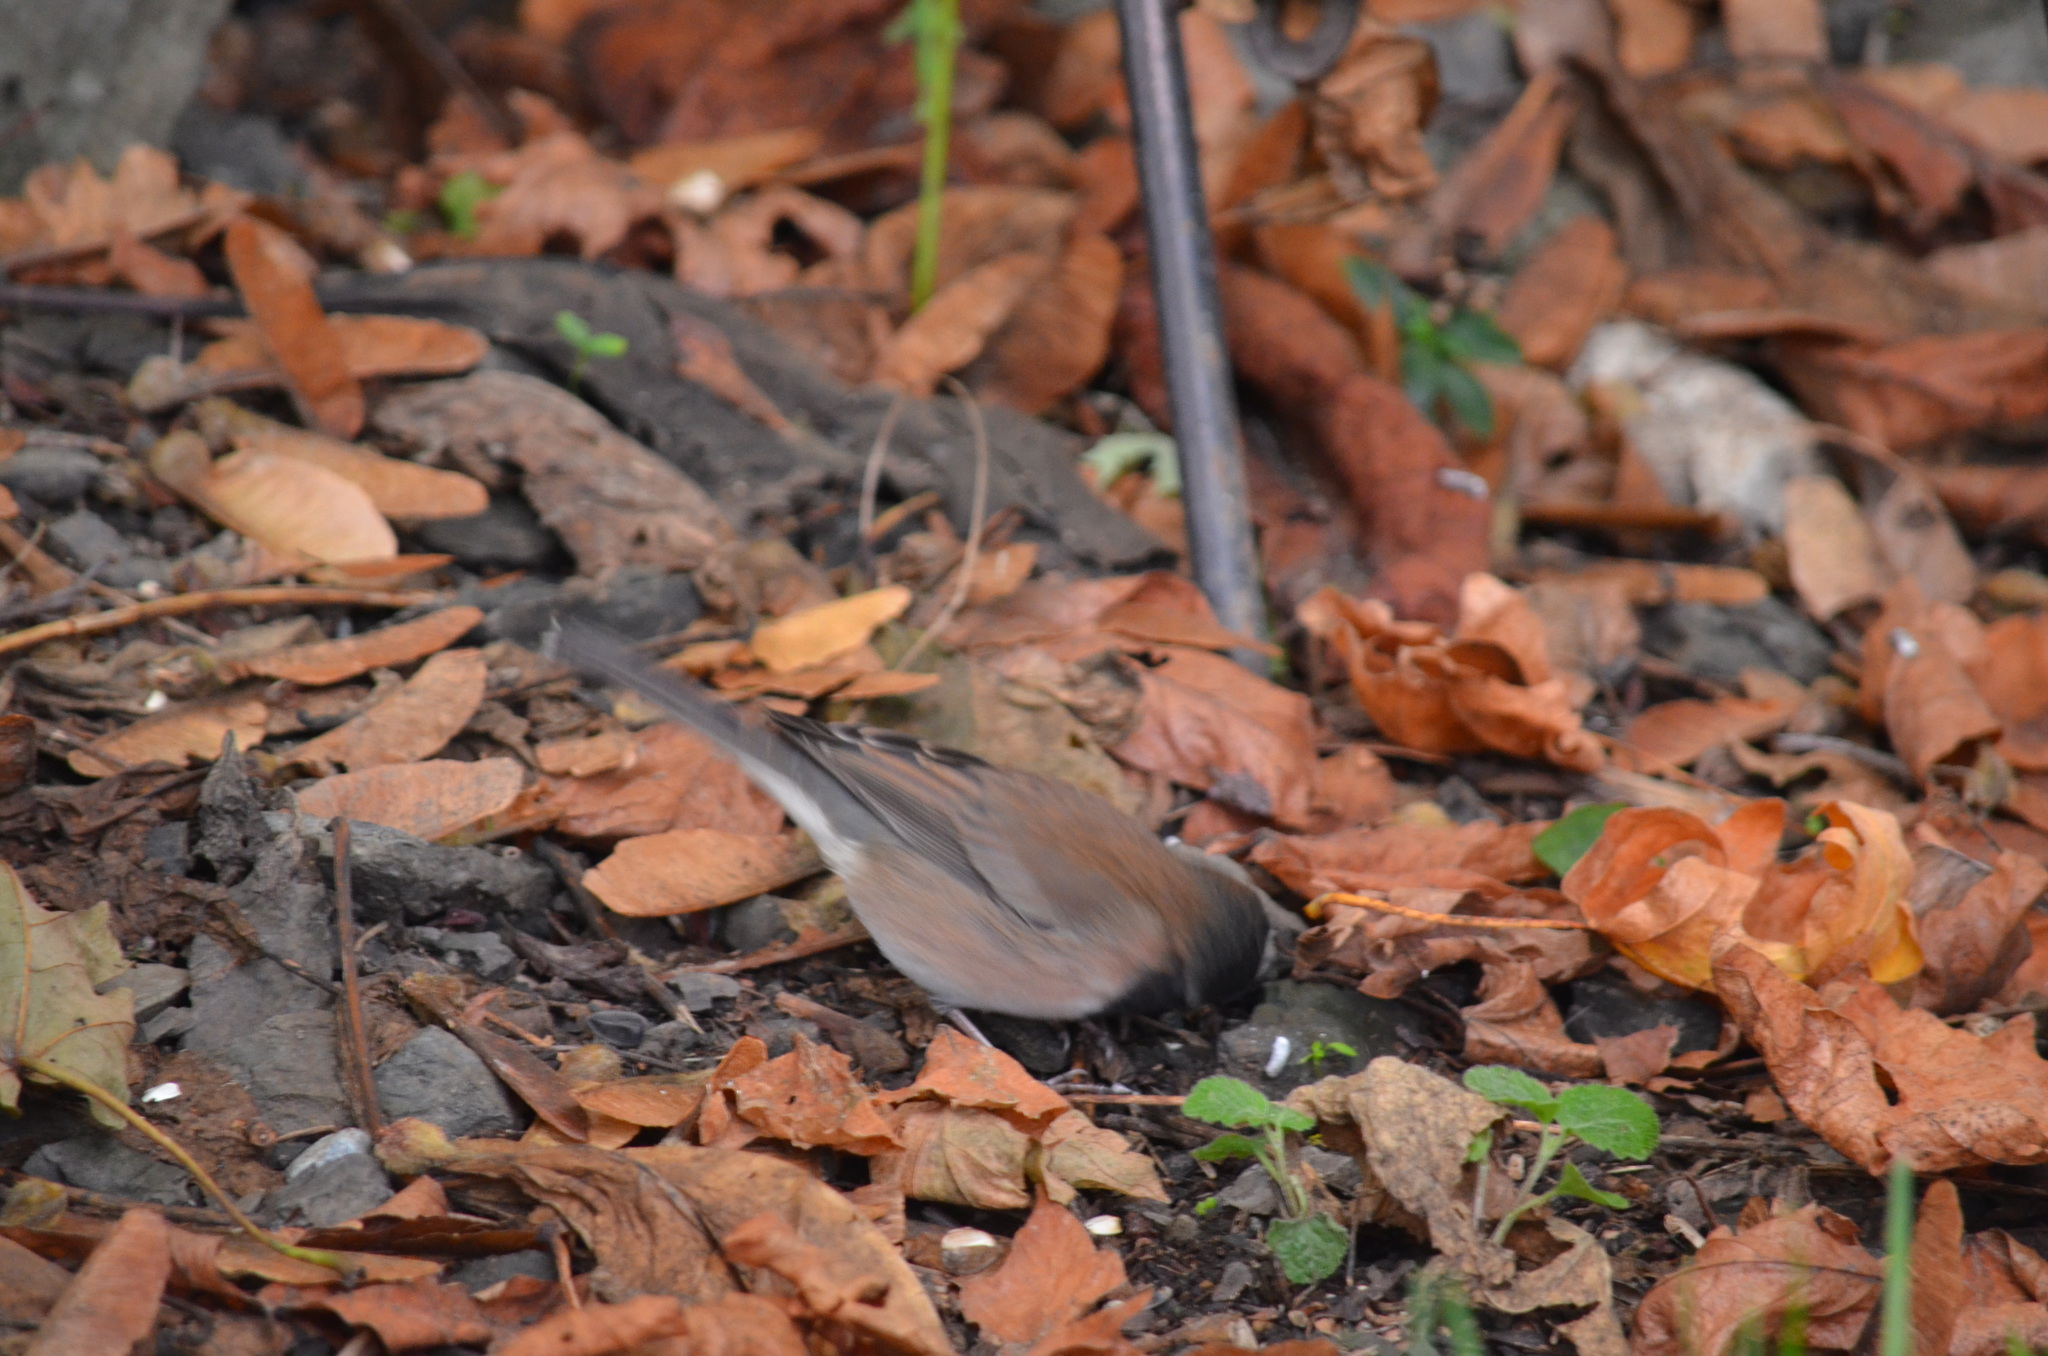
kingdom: Animalia
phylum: Chordata
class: Aves
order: Passeriformes
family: Passerellidae
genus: Junco
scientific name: Junco hyemalis
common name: Dark-eyed junco
